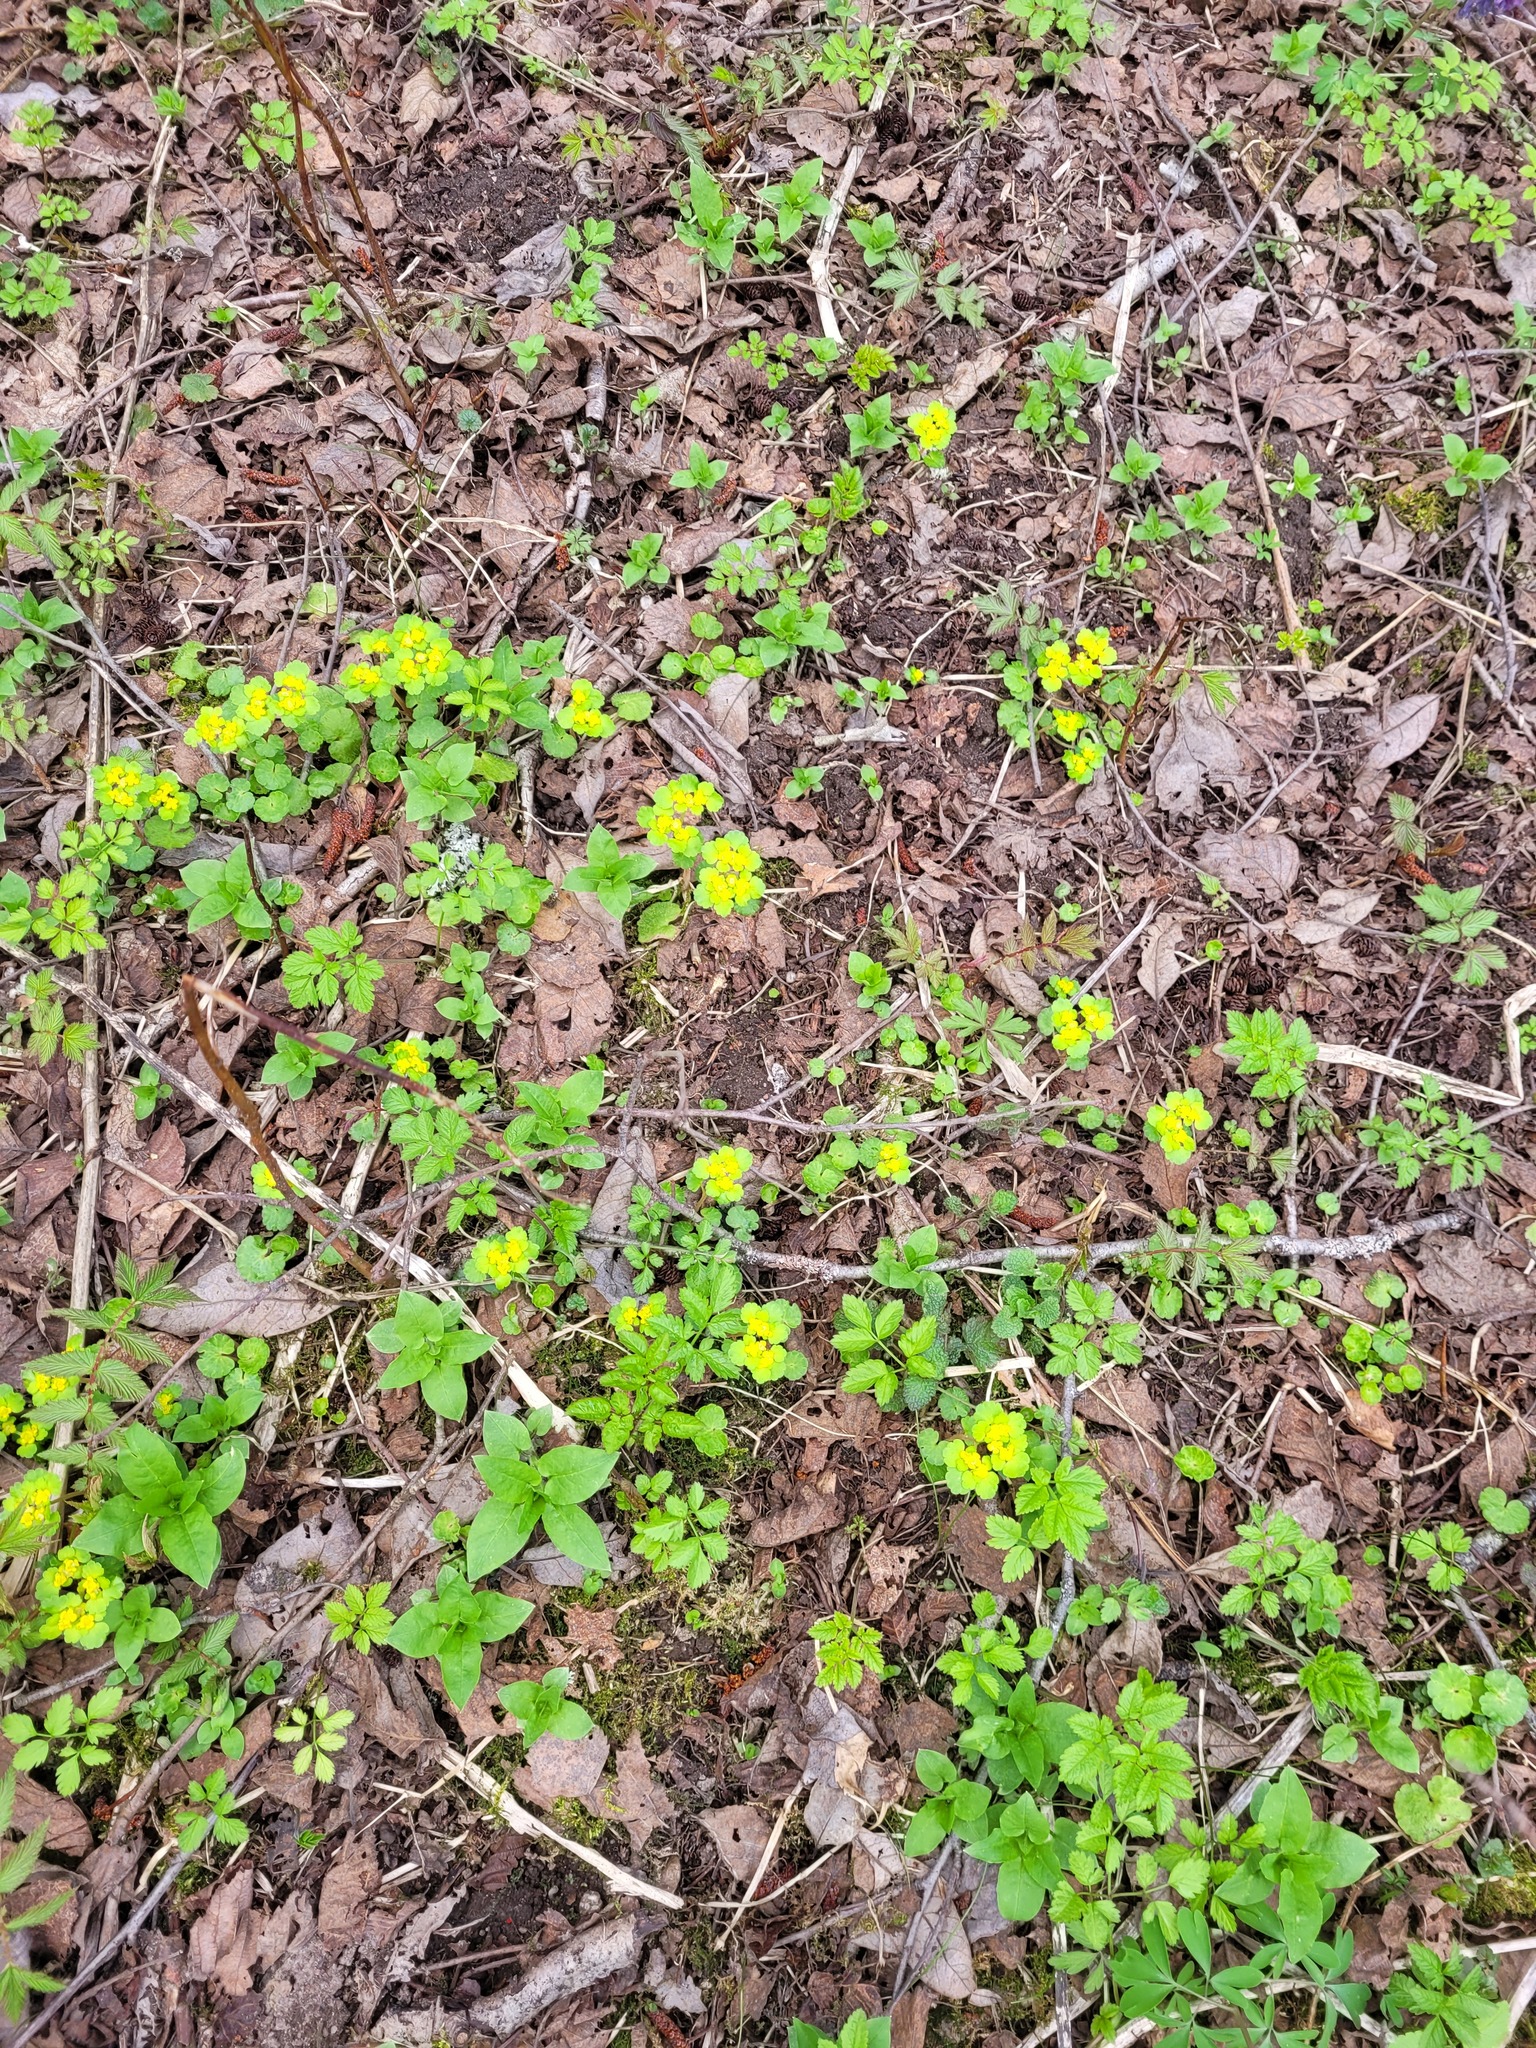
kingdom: Plantae
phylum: Tracheophyta
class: Magnoliopsida
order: Saxifragales
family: Saxifragaceae
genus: Chrysosplenium
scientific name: Chrysosplenium alternifolium
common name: Alternate-leaved golden-saxifrage
